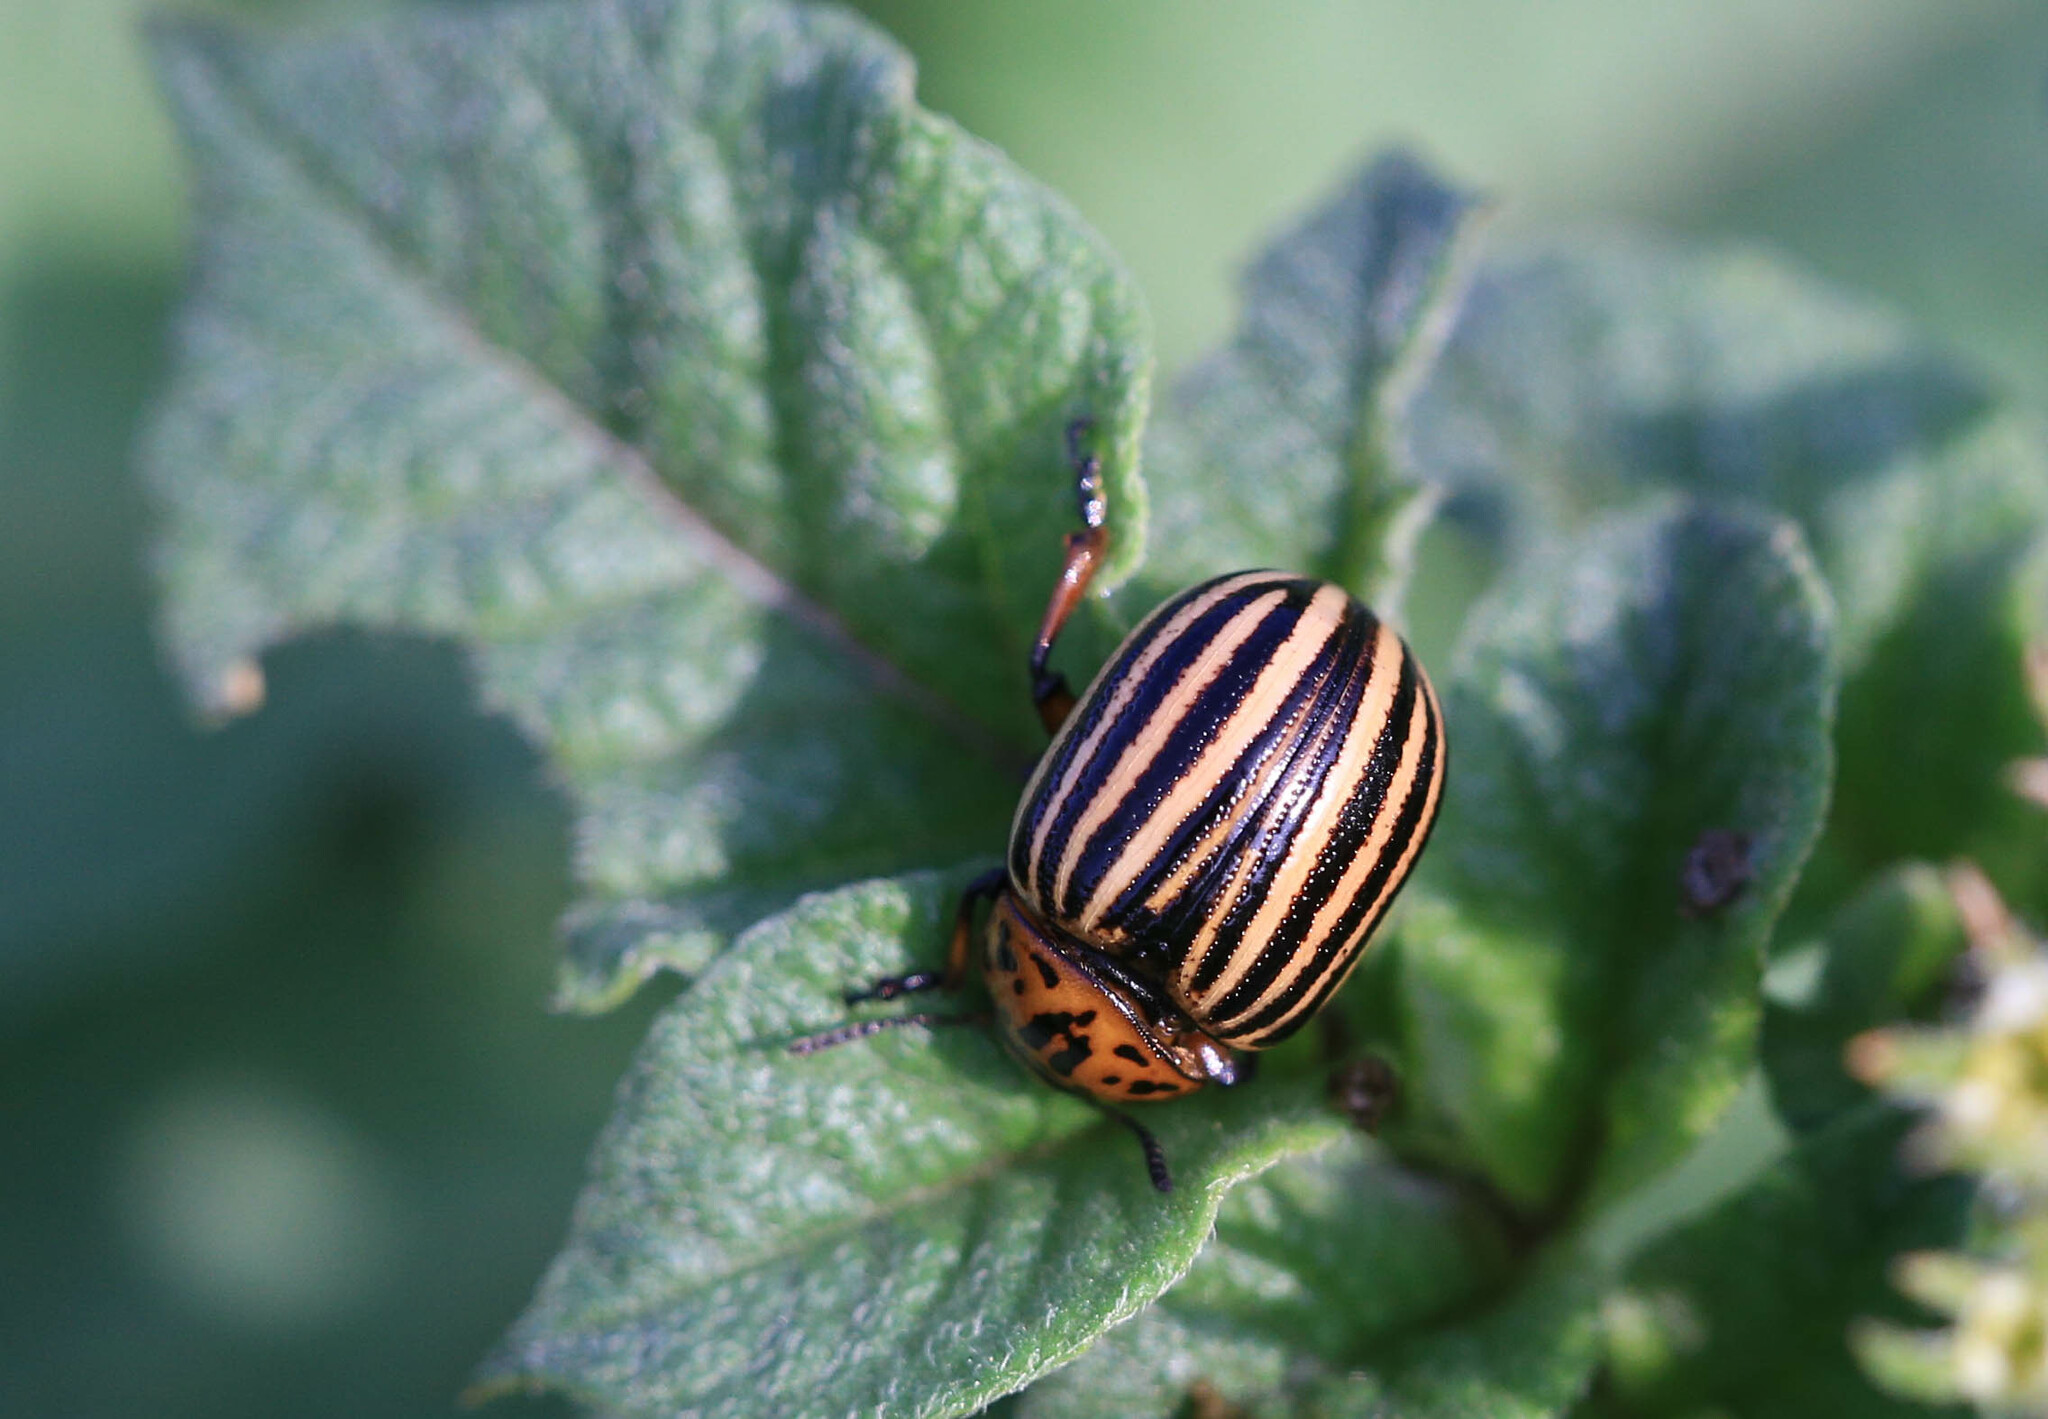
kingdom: Animalia
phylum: Arthropoda
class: Insecta
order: Coleoptera
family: Chrysomelidae
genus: Leptinotarsa
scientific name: Leptinotarsa decemlineata
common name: Colorado potato beetle
